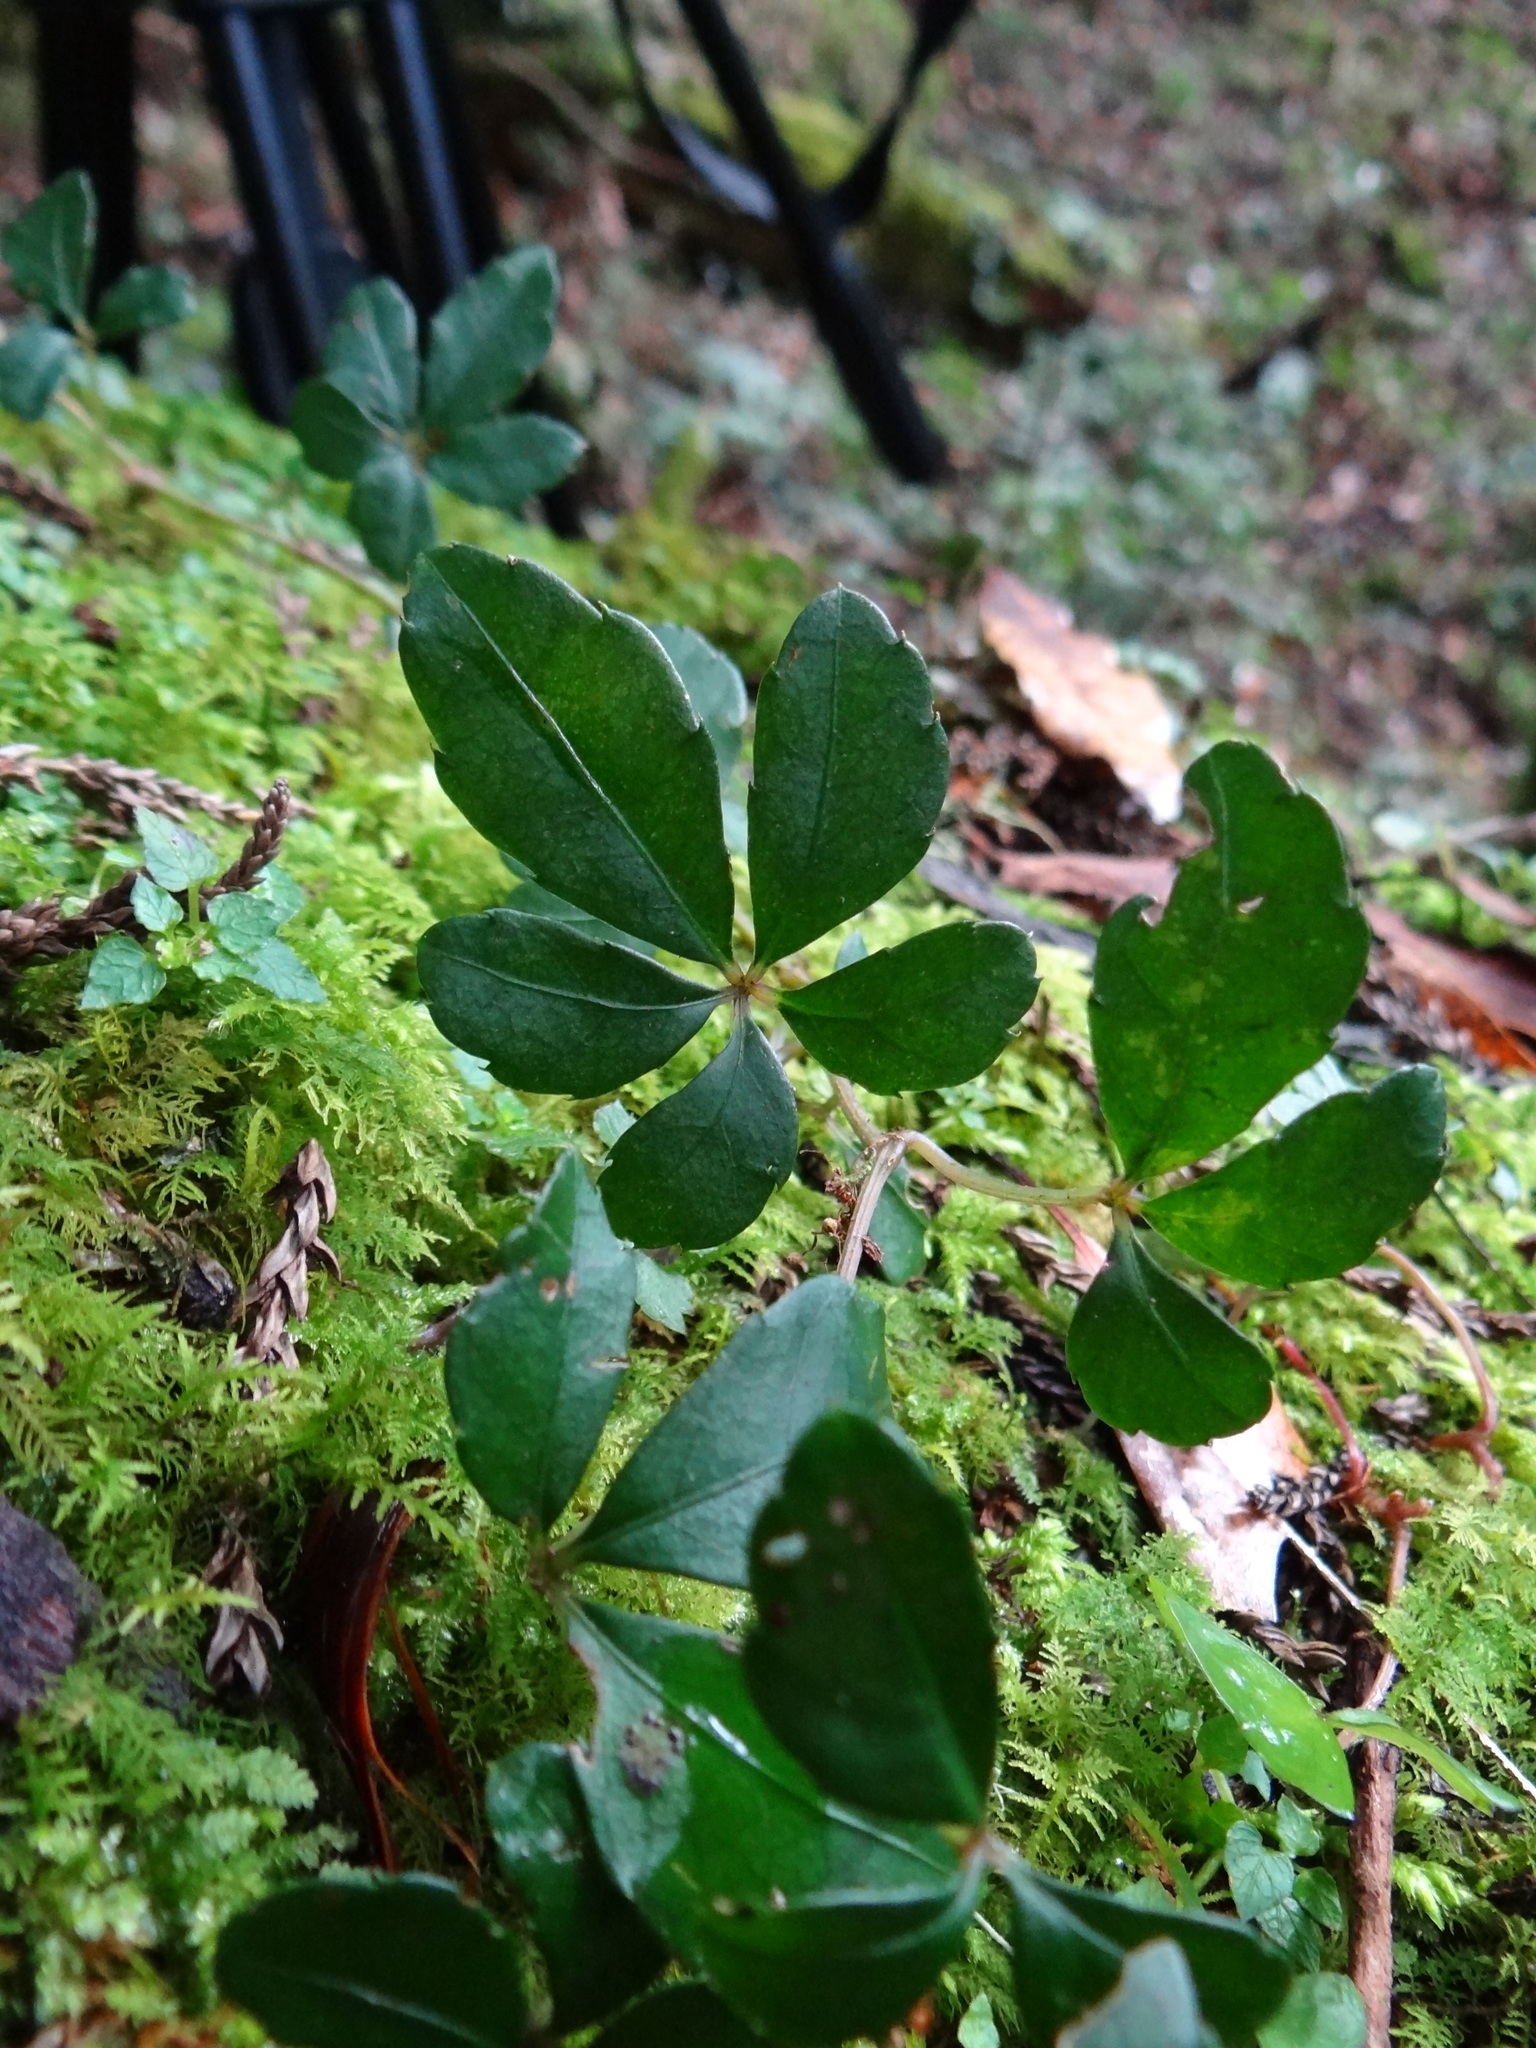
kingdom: Plantae
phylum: Tracheophyta
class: Magnoliopsida
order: Vitales
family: Vitaceae
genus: Tetrastigma
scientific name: Tetrastigma obtectum
